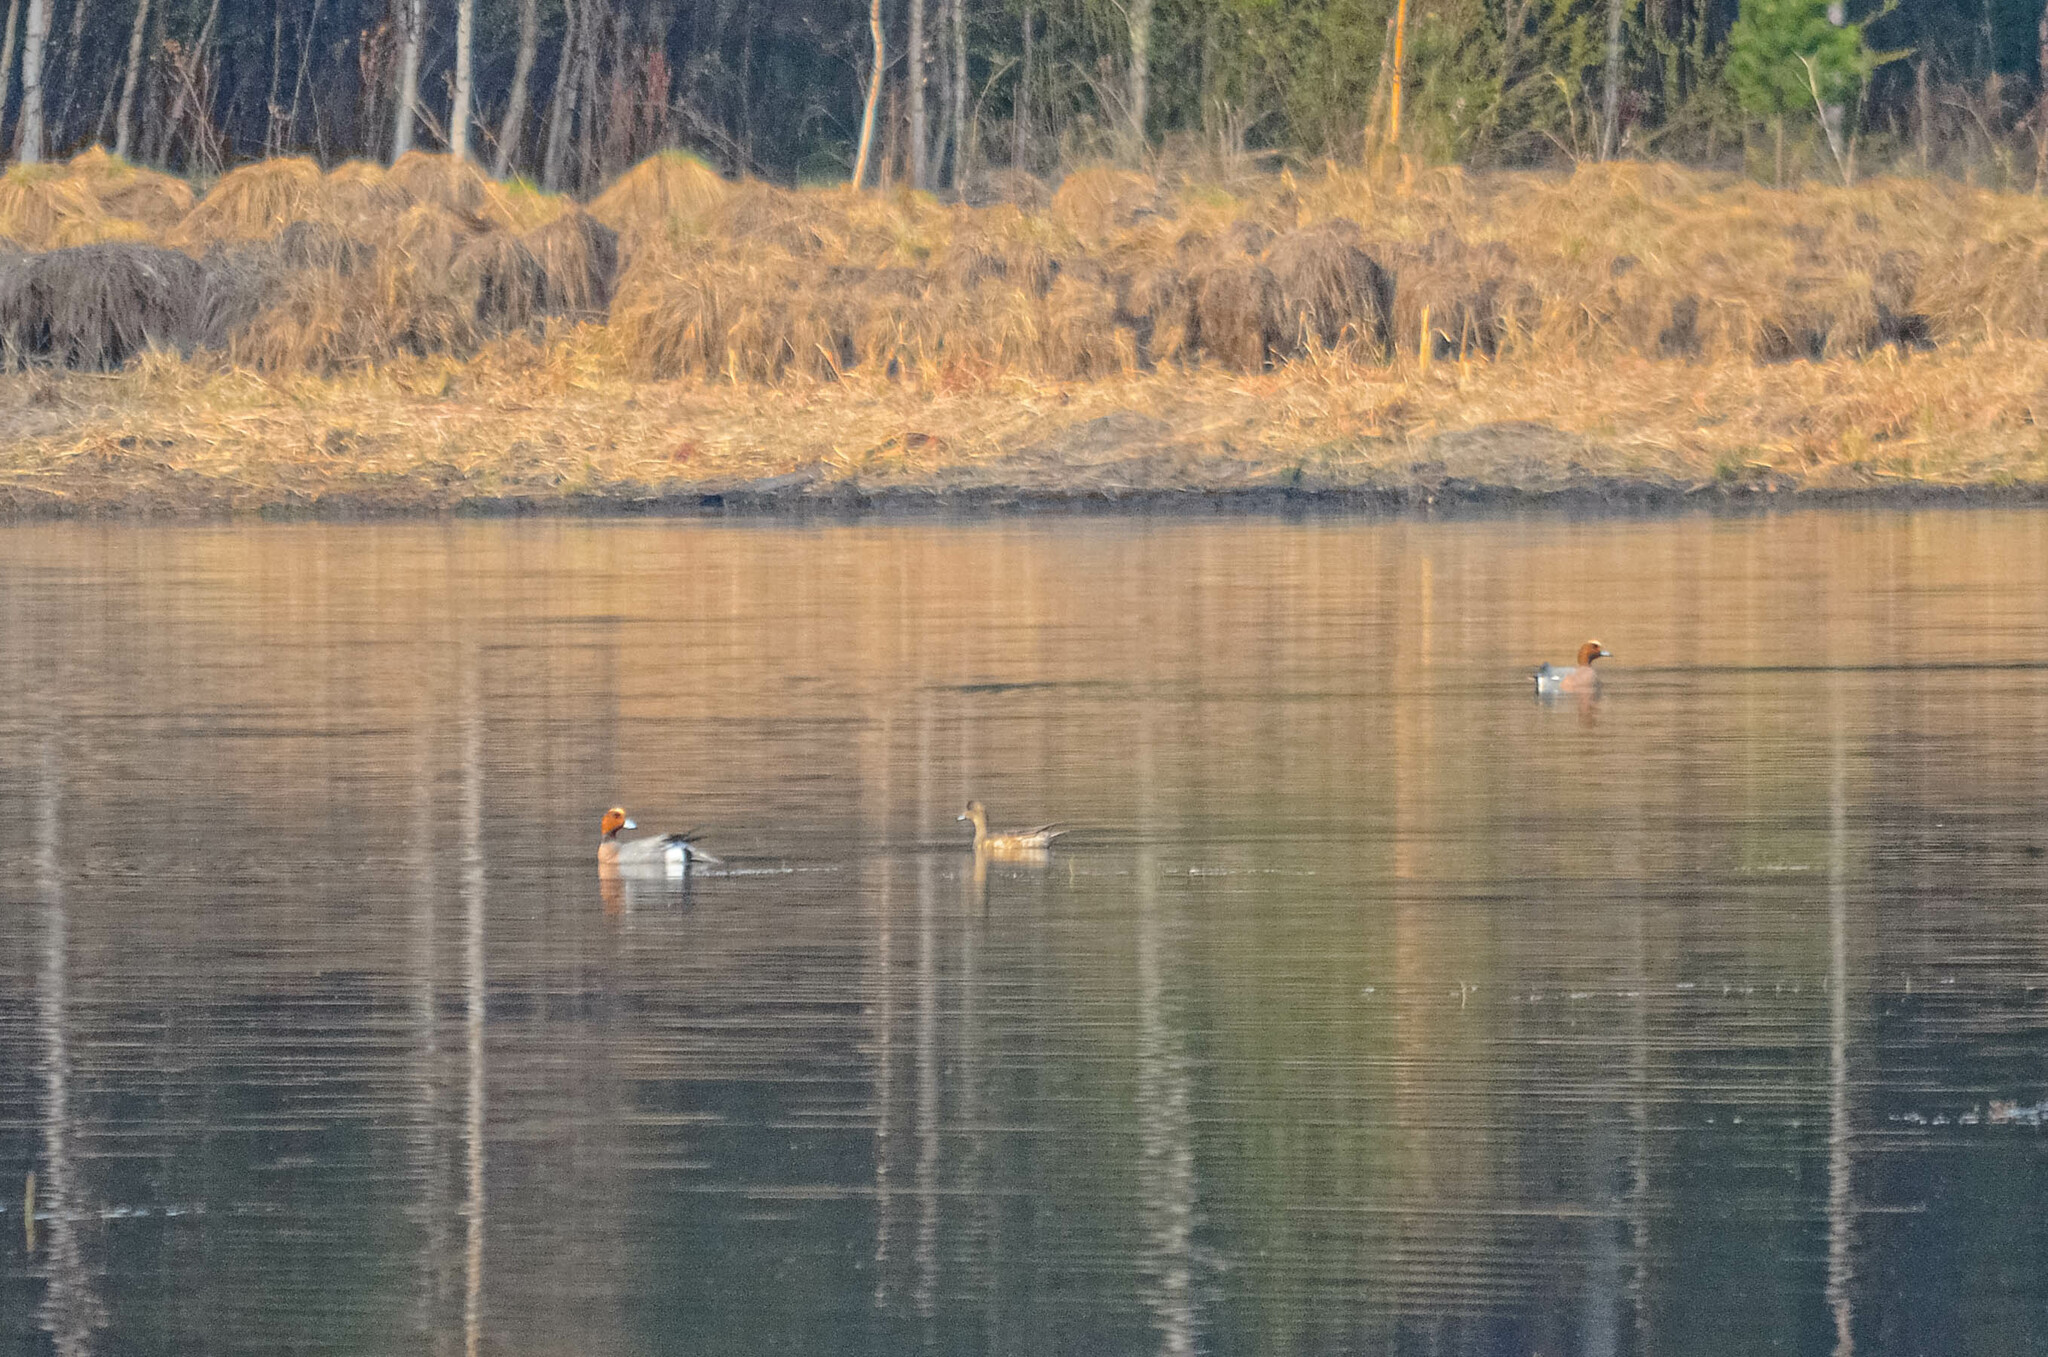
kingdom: Animalia
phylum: Chordata
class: Aves
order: Anseriformes
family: Anatidae
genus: Mareca
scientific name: Mareca penelope
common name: Eurasian wigeon
